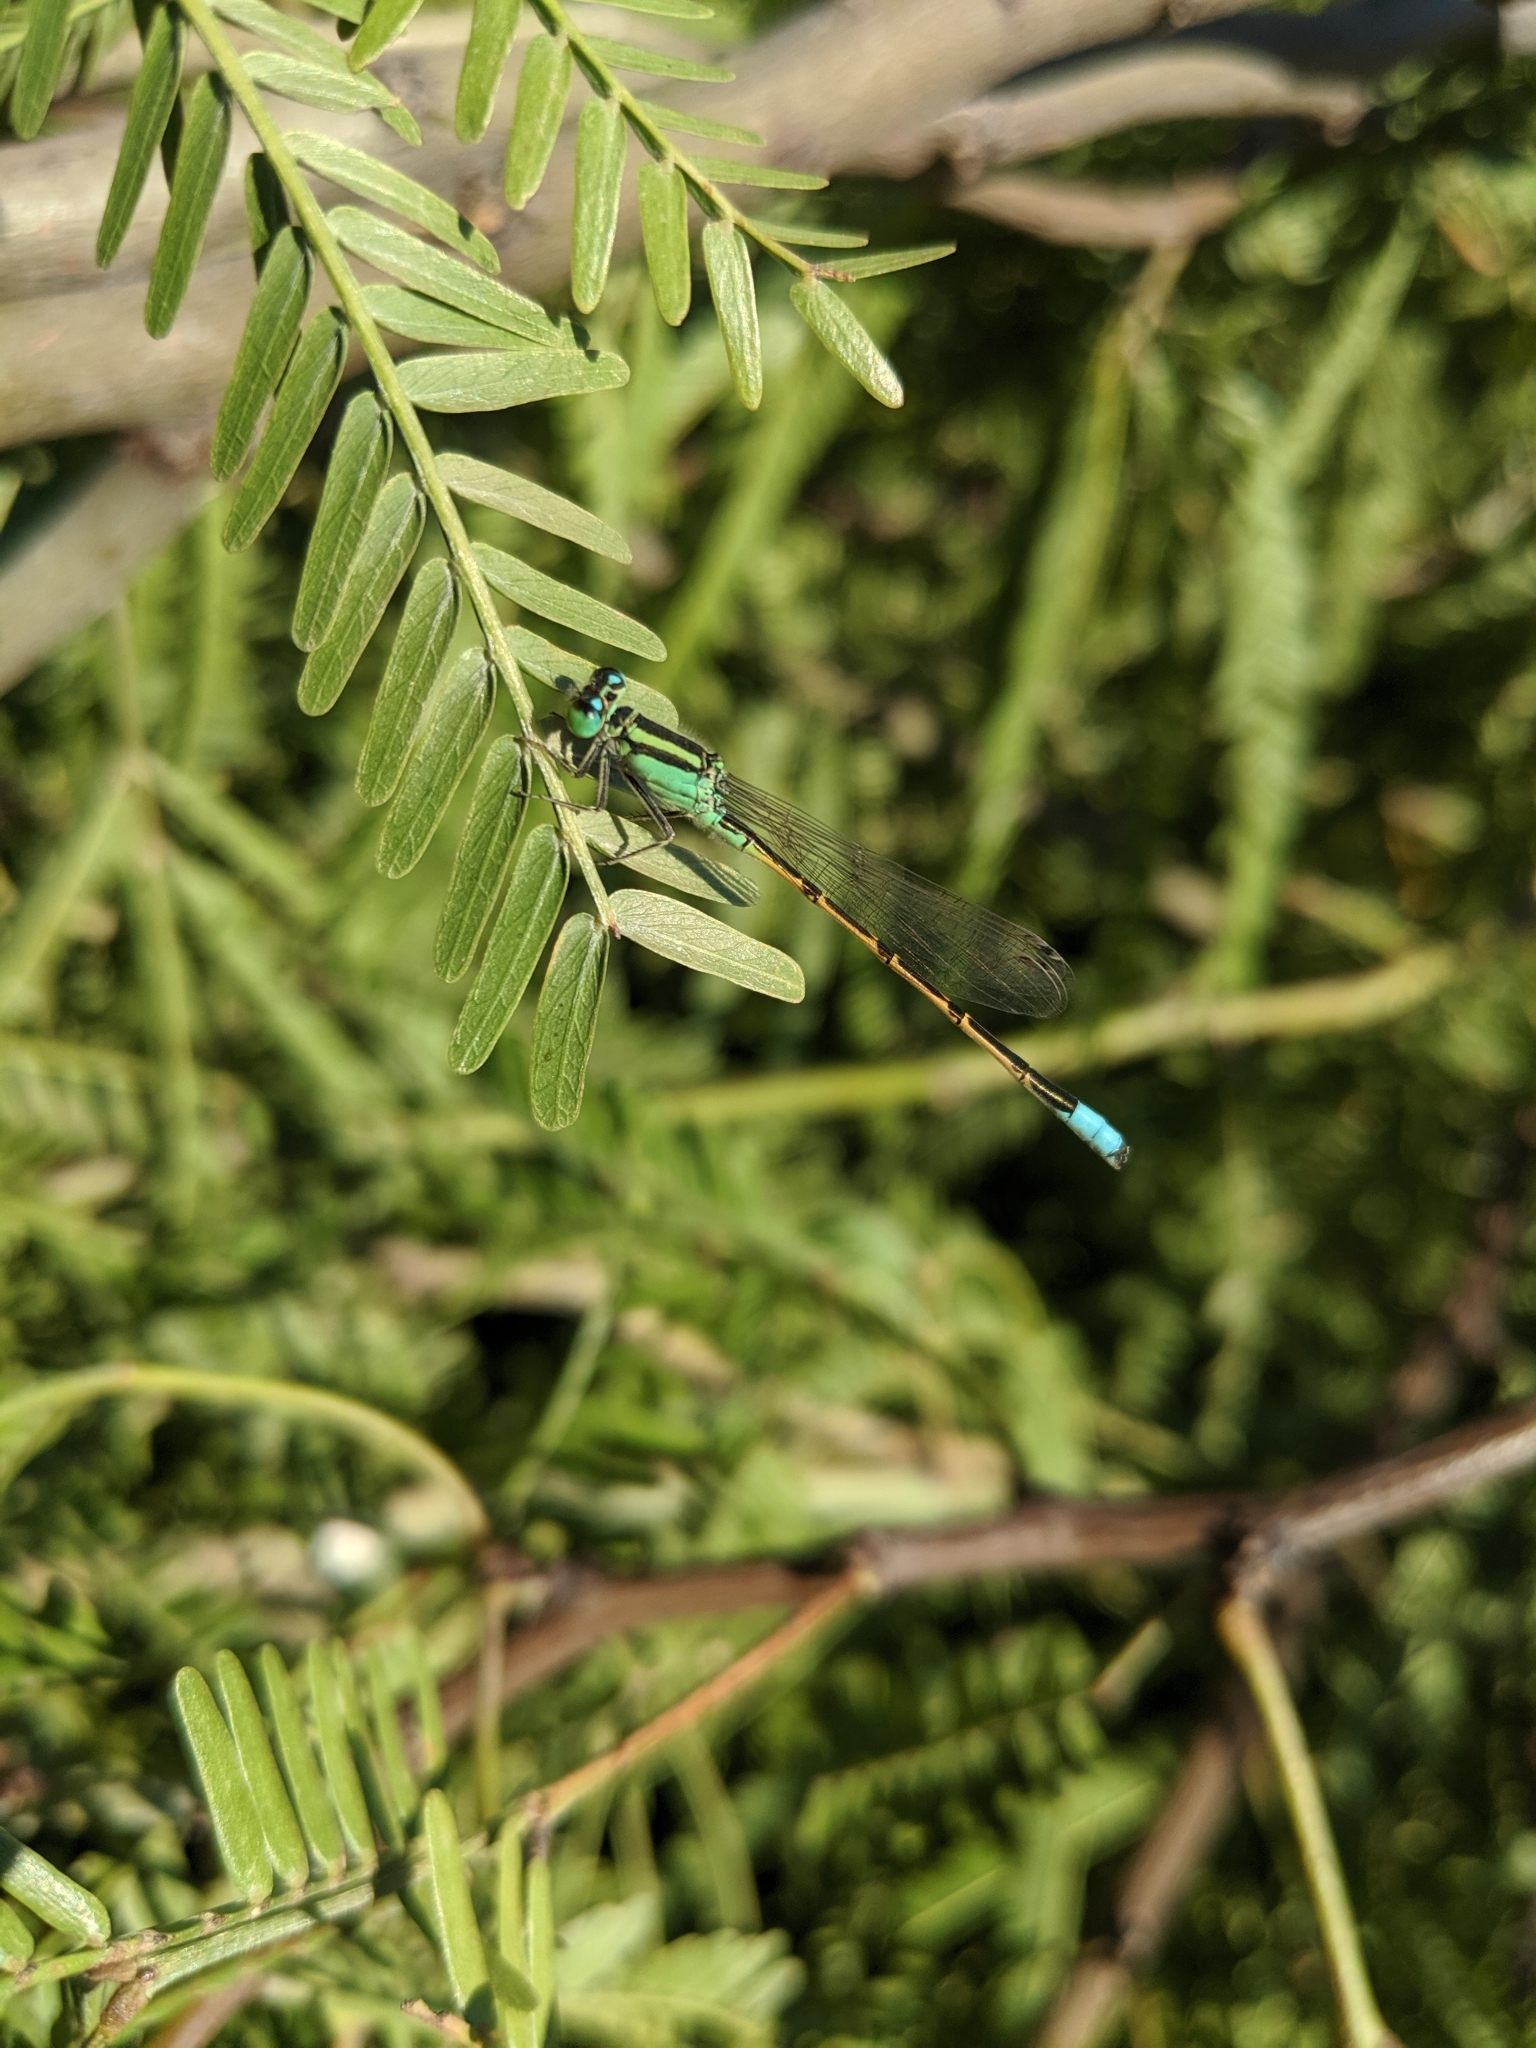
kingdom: Animalia
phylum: Arthropoda
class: Insecta
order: Odonata
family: Coenagrionidae
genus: Ischnura
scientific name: Ischnura barberi
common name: Desert forktail
